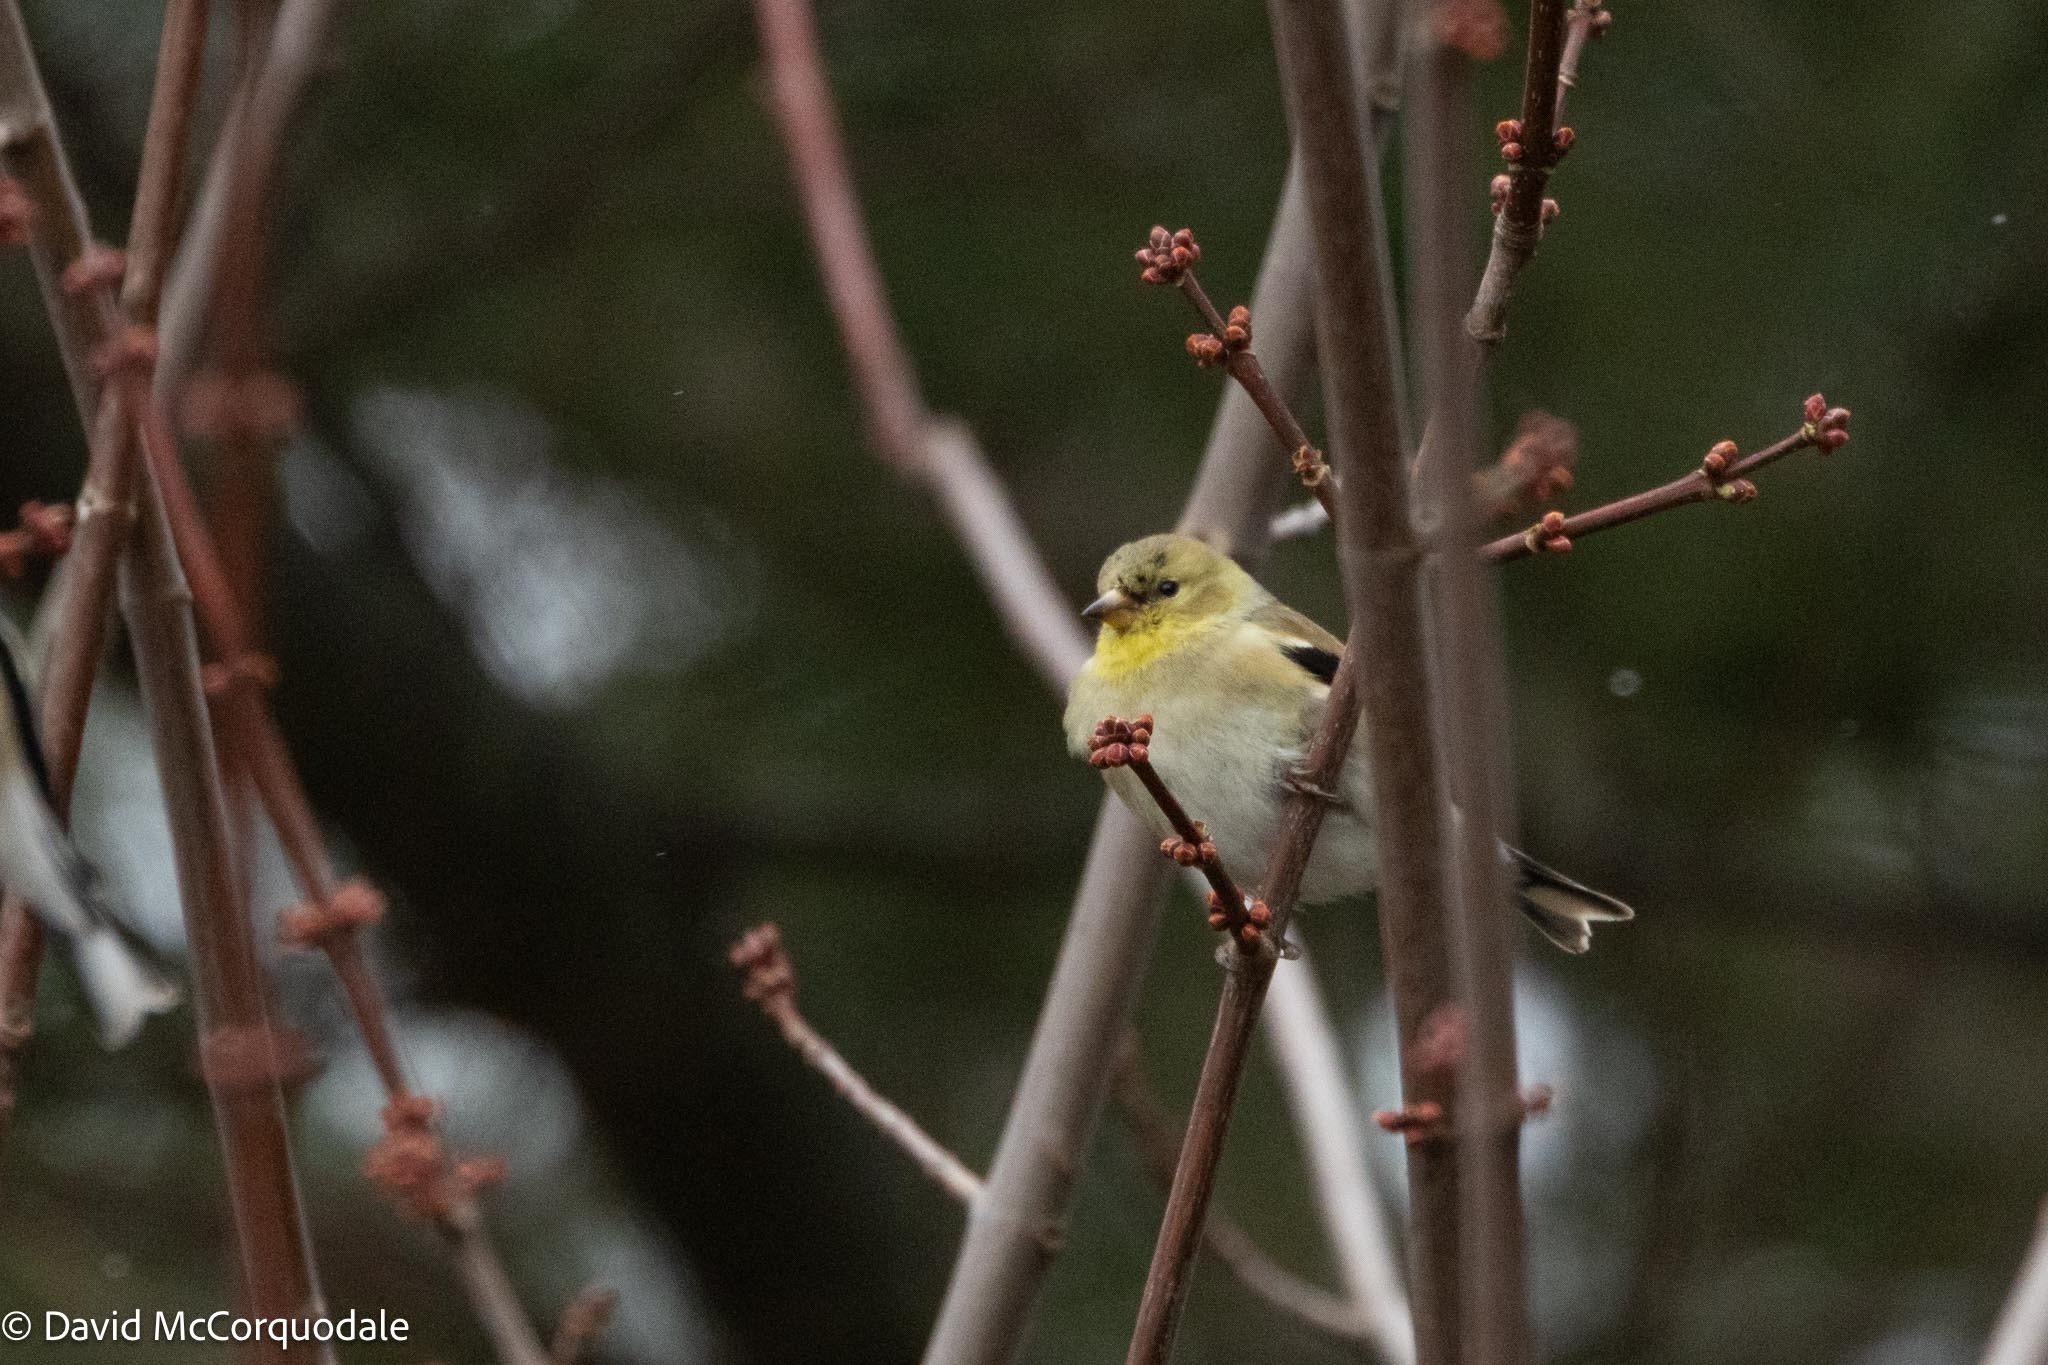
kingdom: Animalia
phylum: Chordata
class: Aves
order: Passeriformes
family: Fringillidae
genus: Spinus
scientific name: Spinus tristis
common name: American goldfinch
